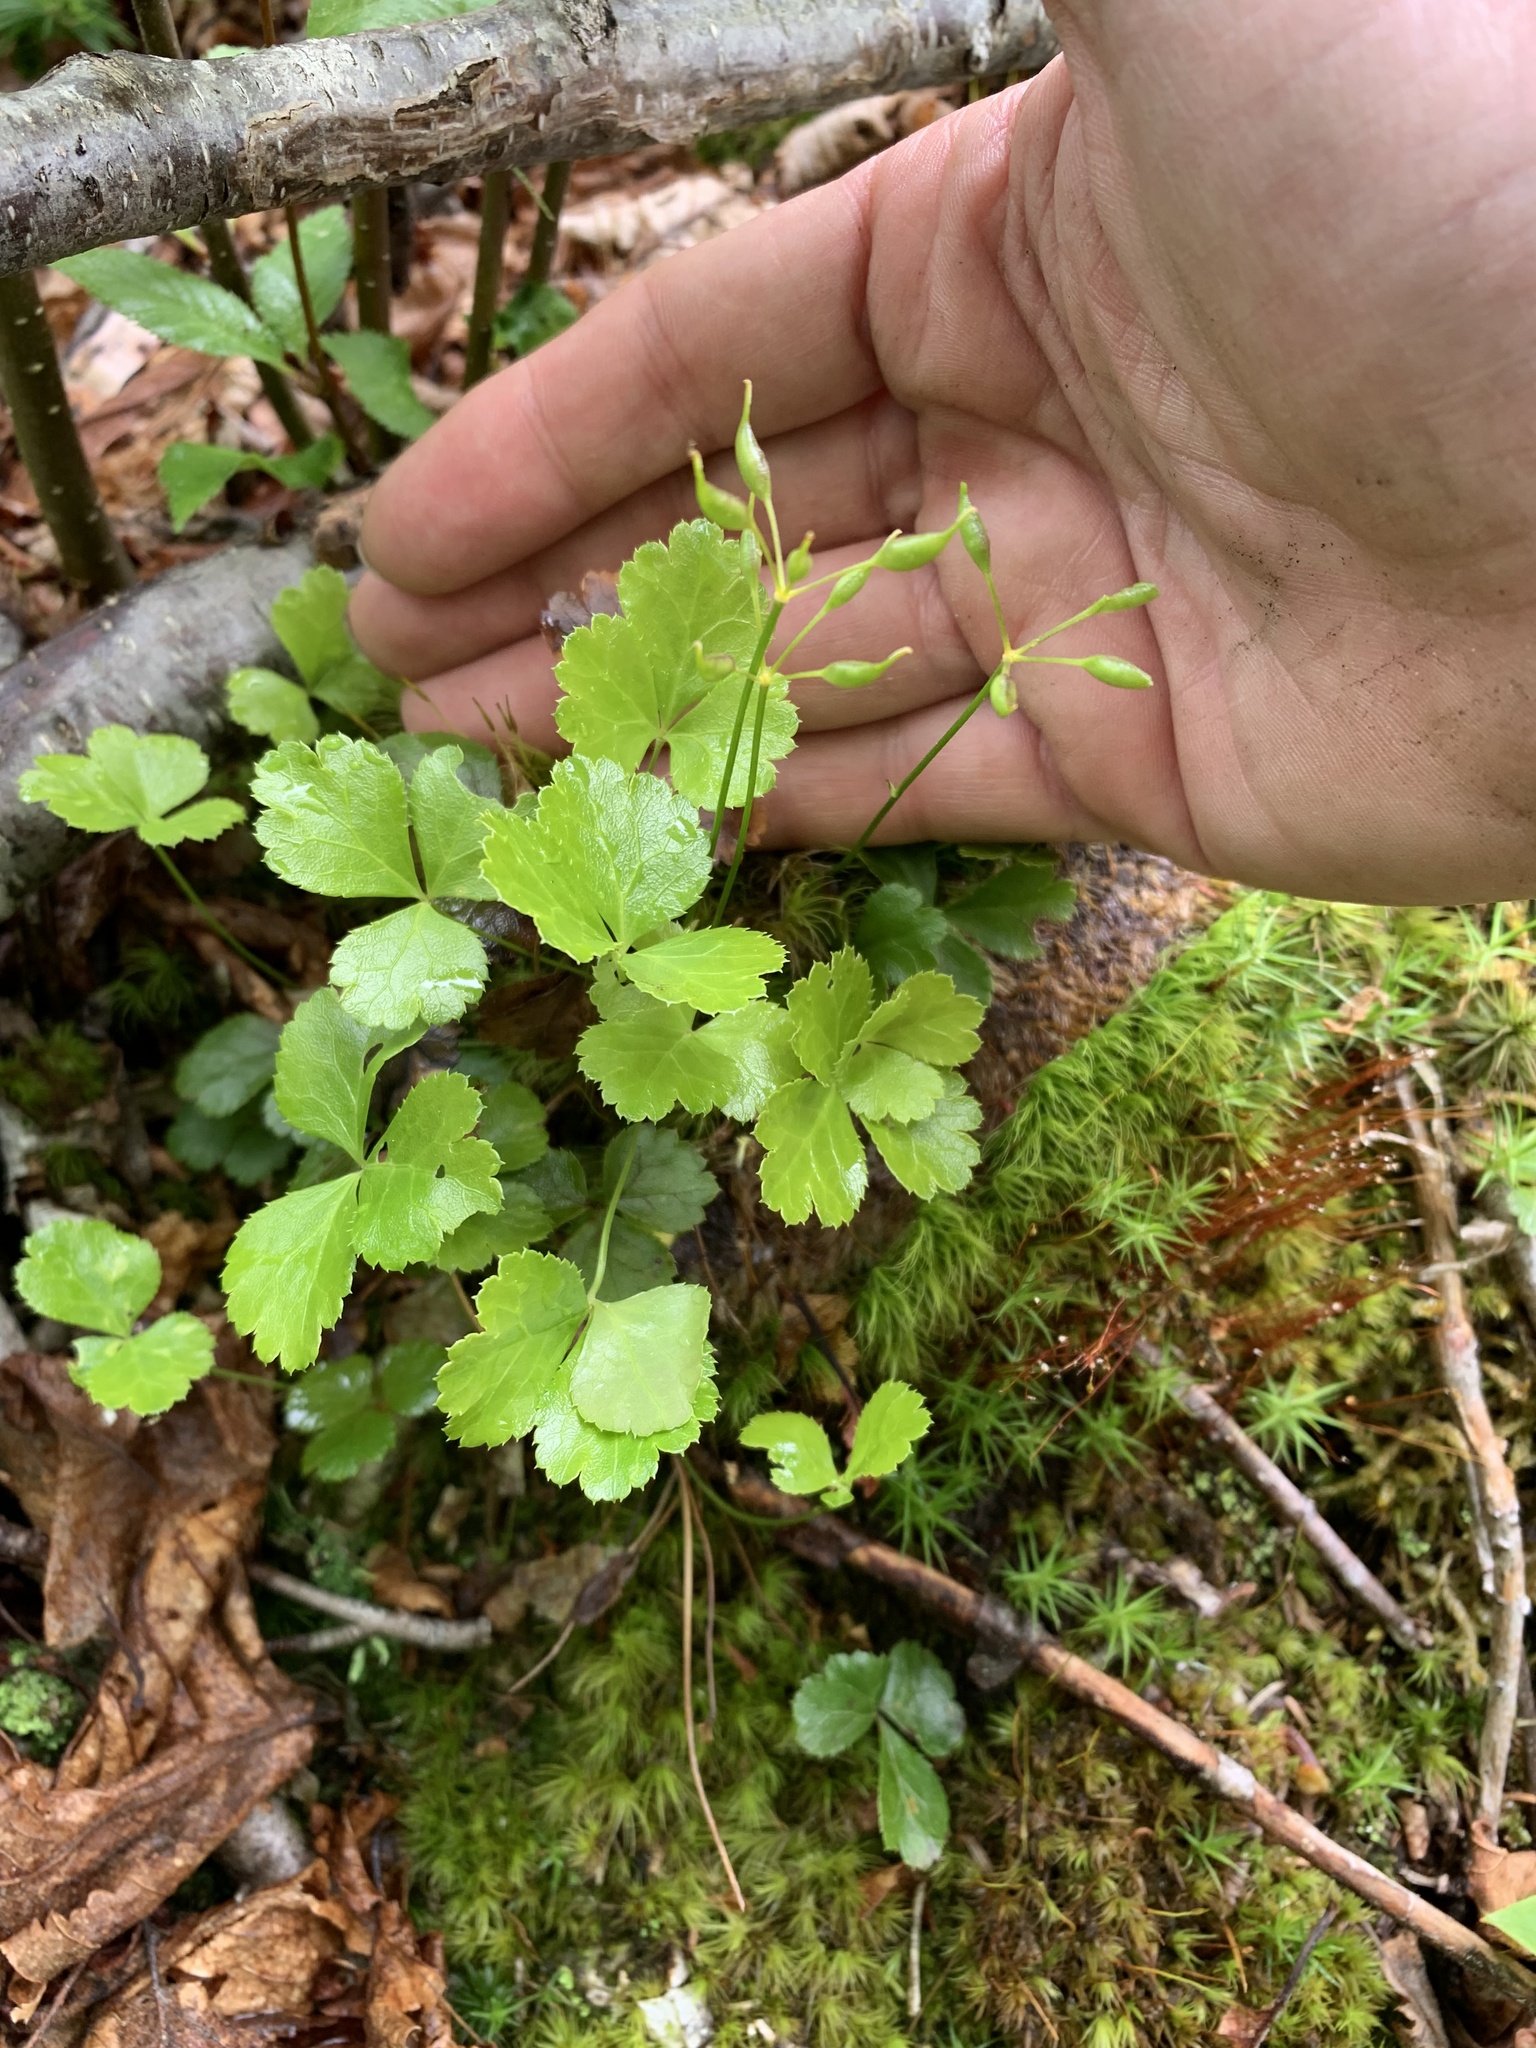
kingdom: Plantae
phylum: Tracheophyta
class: Magnoliopsida
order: Ranunculales
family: Ranunculaceae
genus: Coptis
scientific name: Coptis trifolia
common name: Canker-root
